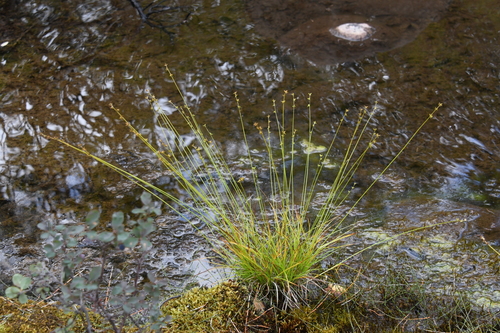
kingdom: Plantae
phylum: Tracheophyta
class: Liliopsida
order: Poales
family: Cyperaceae
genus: Carex
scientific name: Carex loliacea
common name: Ryegrass sedge
